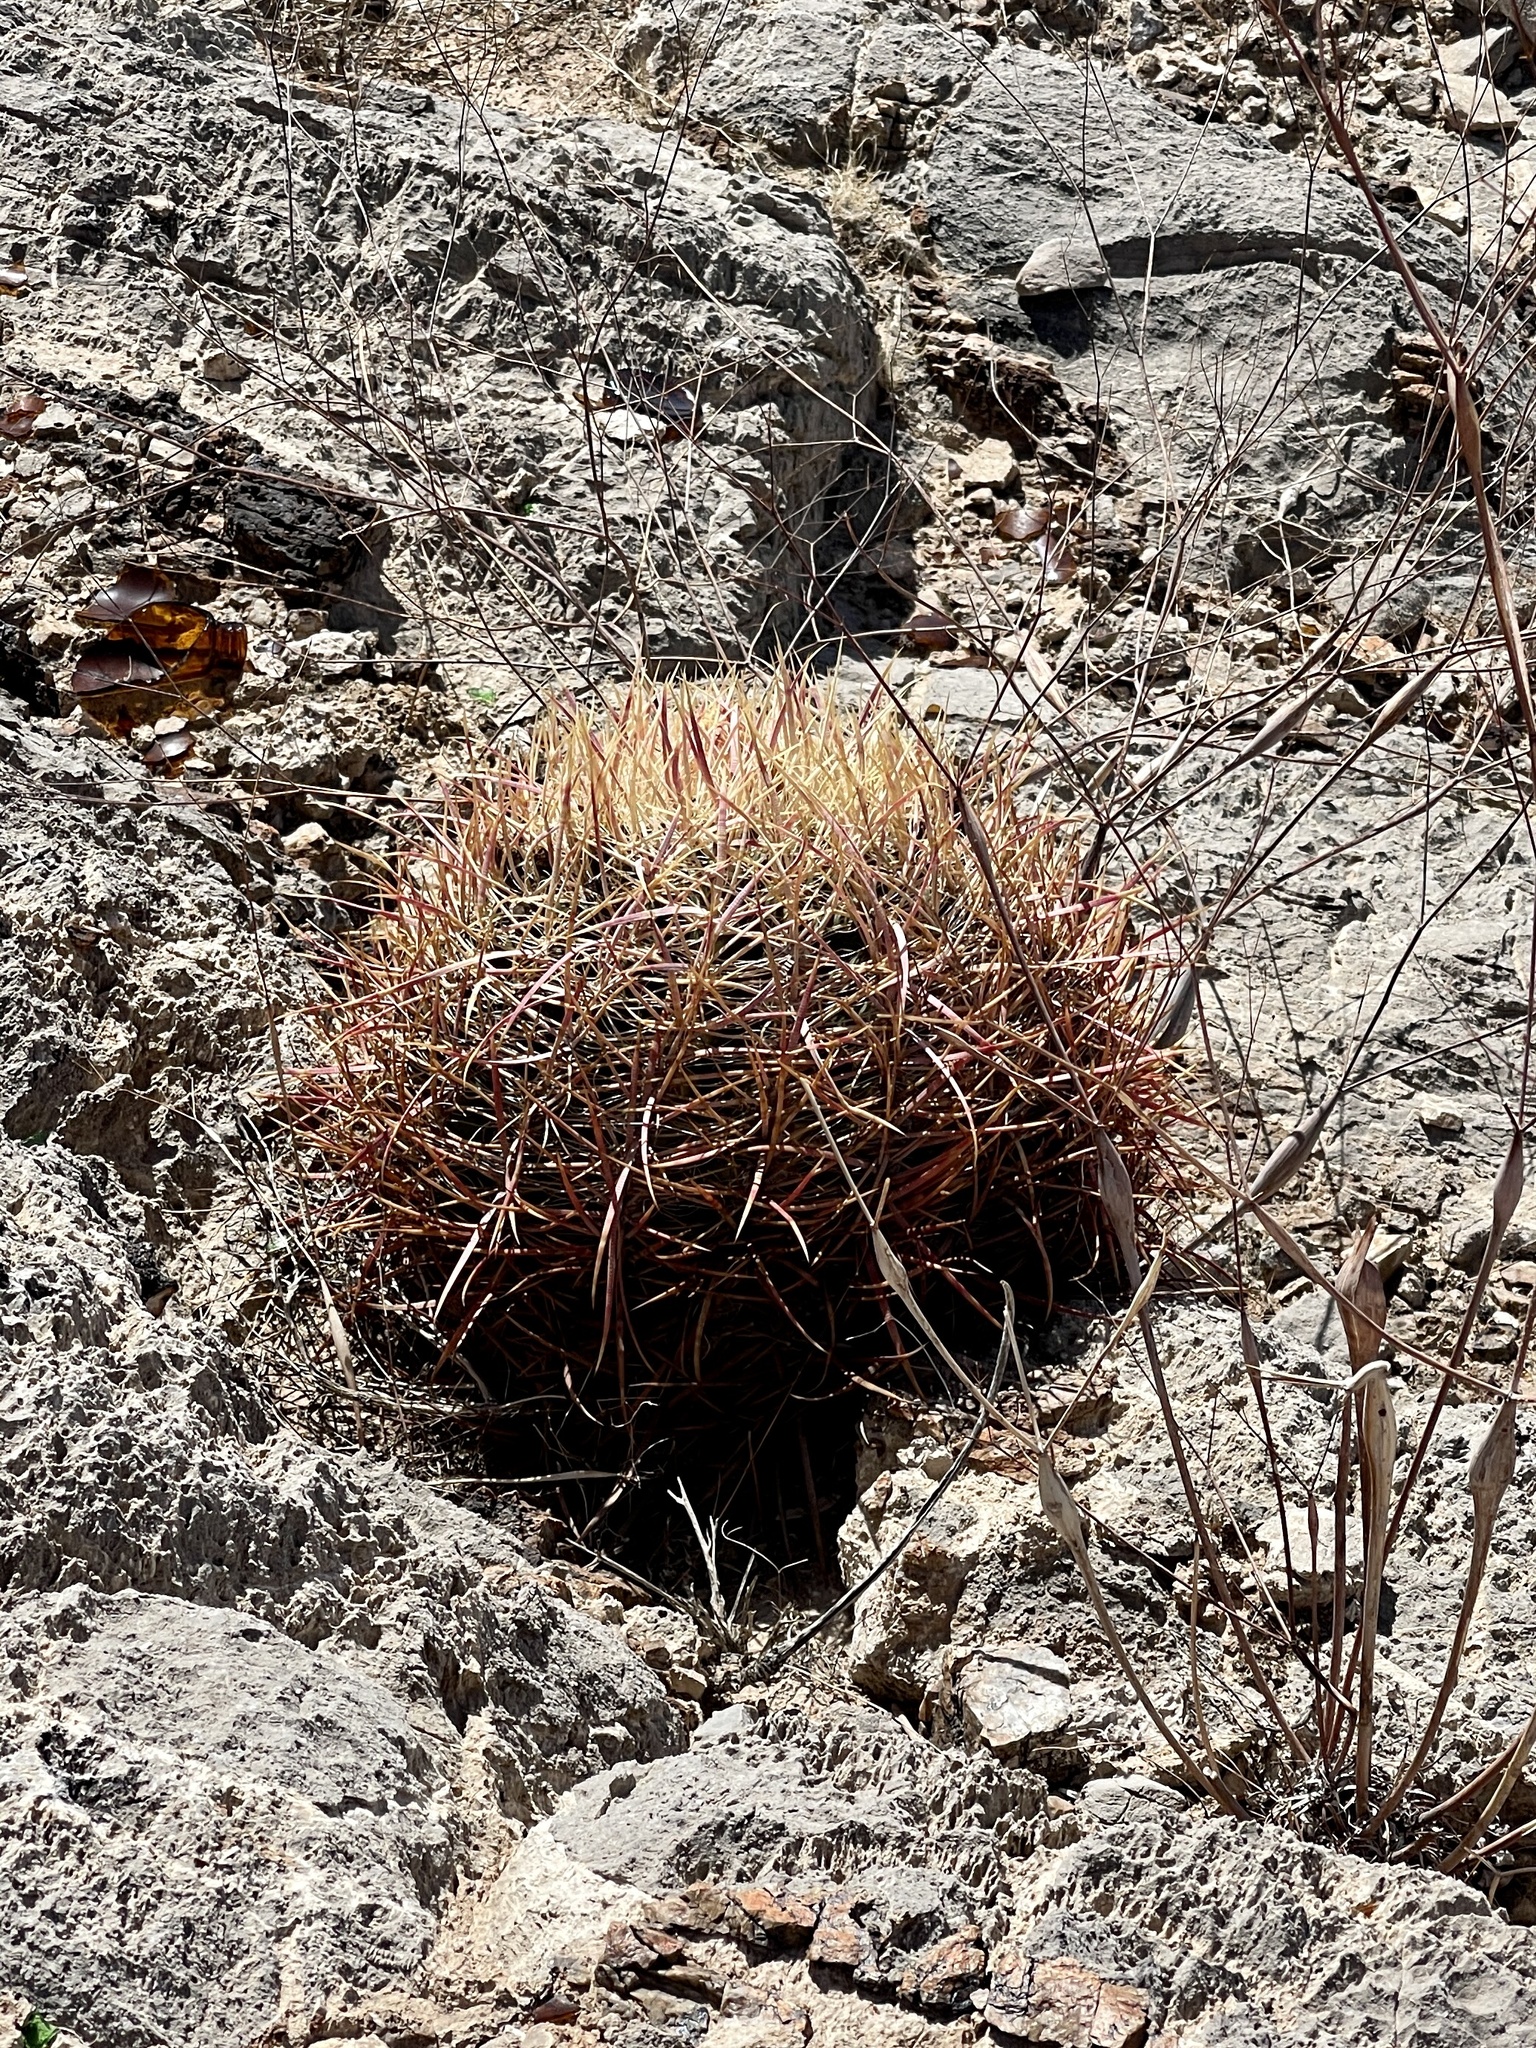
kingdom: Plantae
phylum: Tracheophyta
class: Magnoliopsida
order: Caryophyllales
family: Cactaceae
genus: Ferocactus
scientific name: Ferocactus cylindraceus
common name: California barrel cactus
